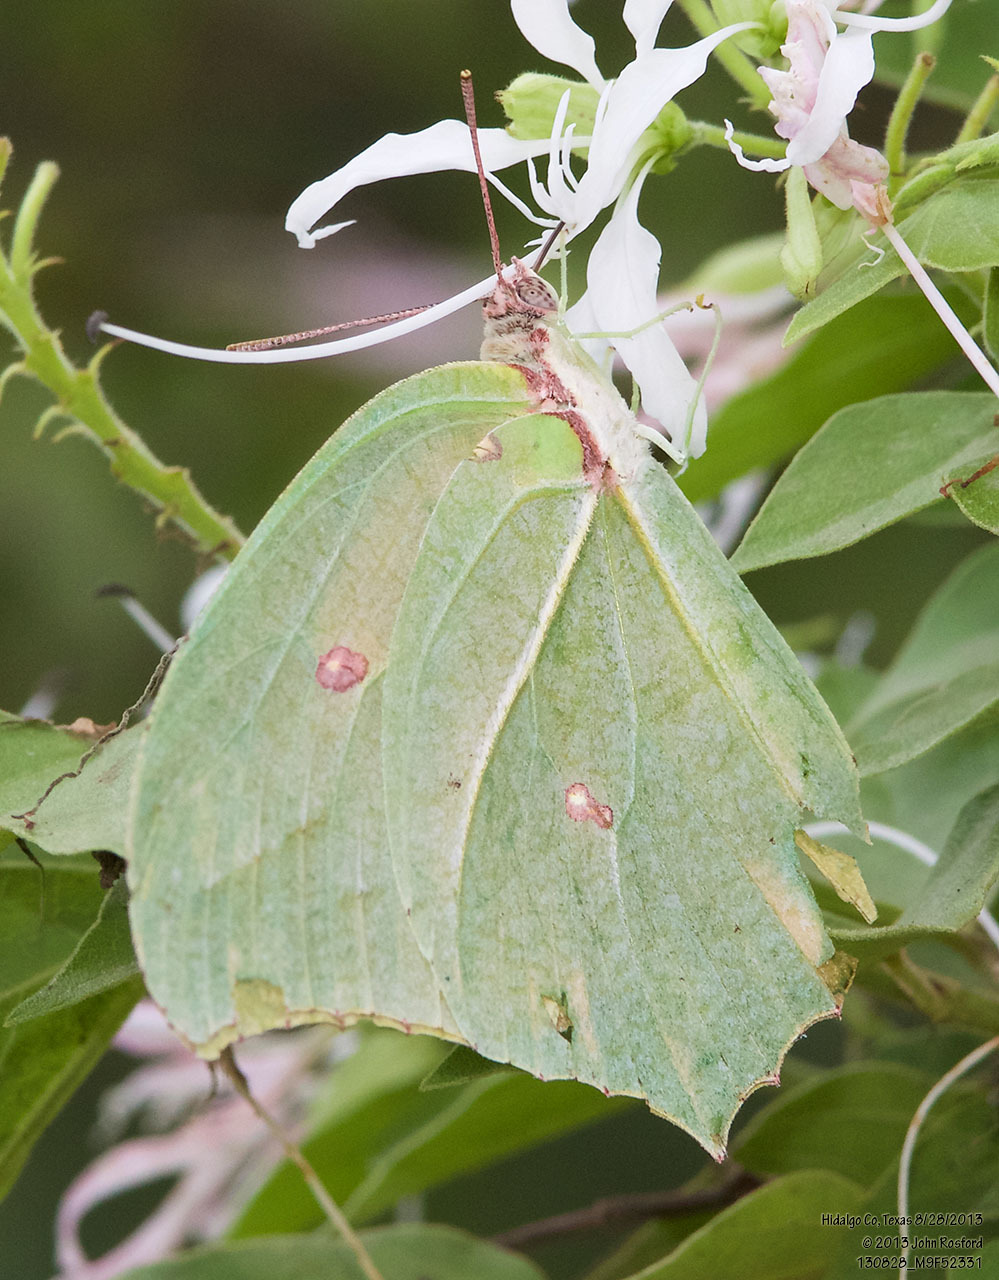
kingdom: Animalia
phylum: Arthropoda
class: Insecta
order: Lepidoptera
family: Pieridae
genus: Anteos
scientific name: Anteos maerula
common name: Angled sulphur
